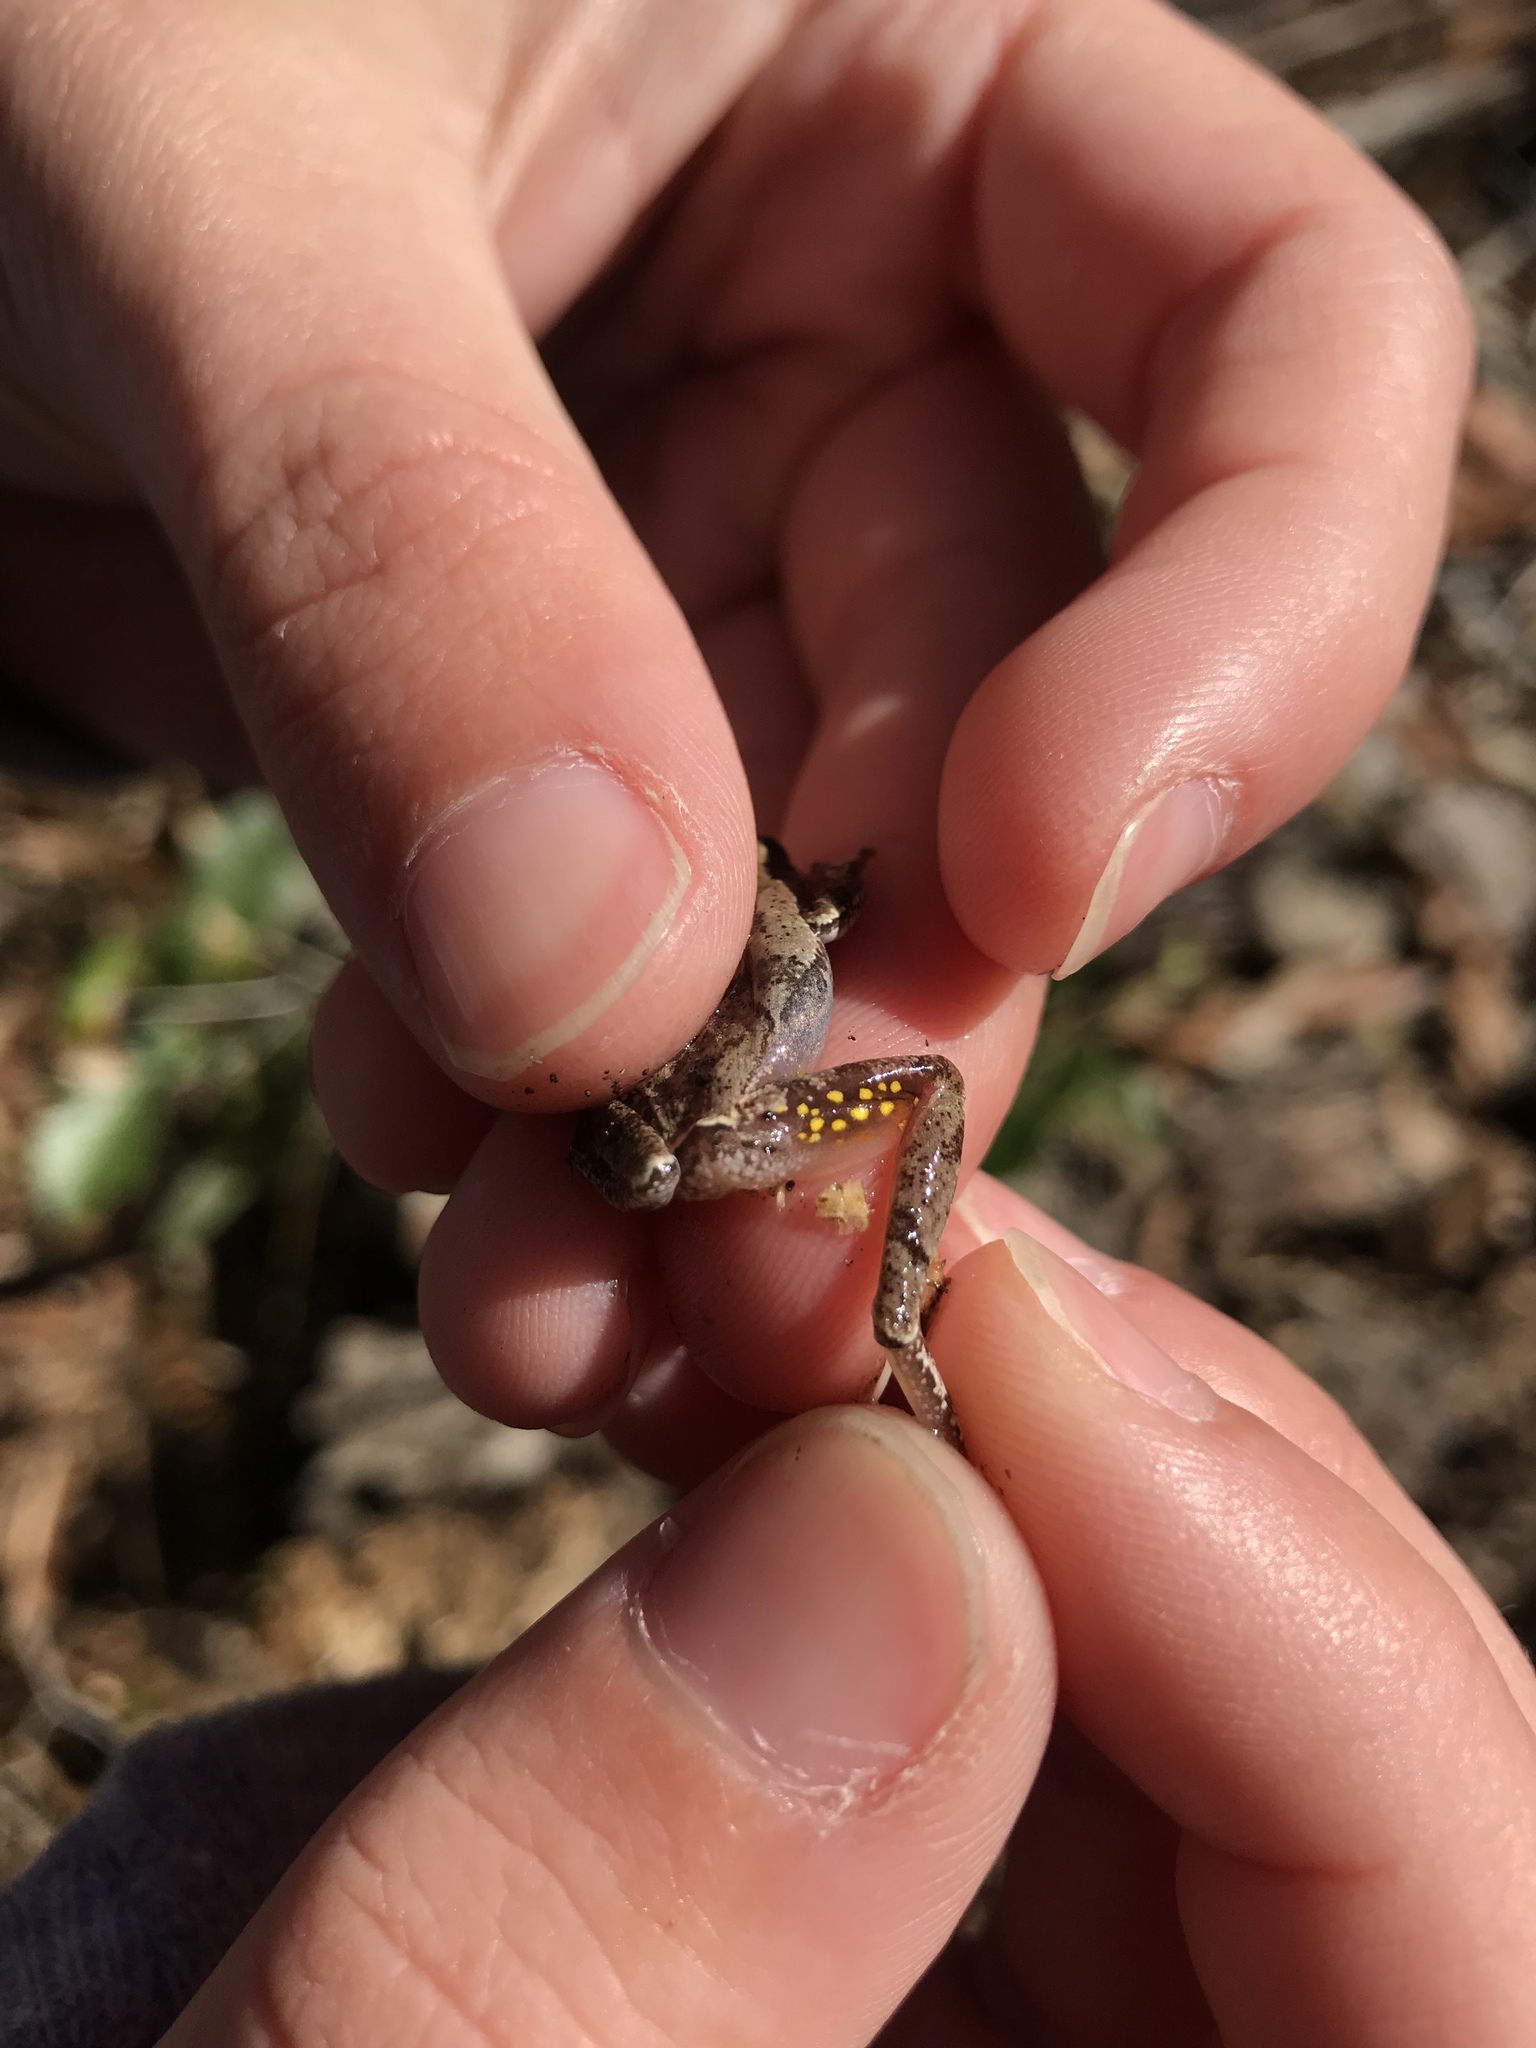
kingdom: Animalia
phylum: Chordata
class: Amphibia
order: Anura
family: Hylidae
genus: Hyla
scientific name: Hyla femoralis
